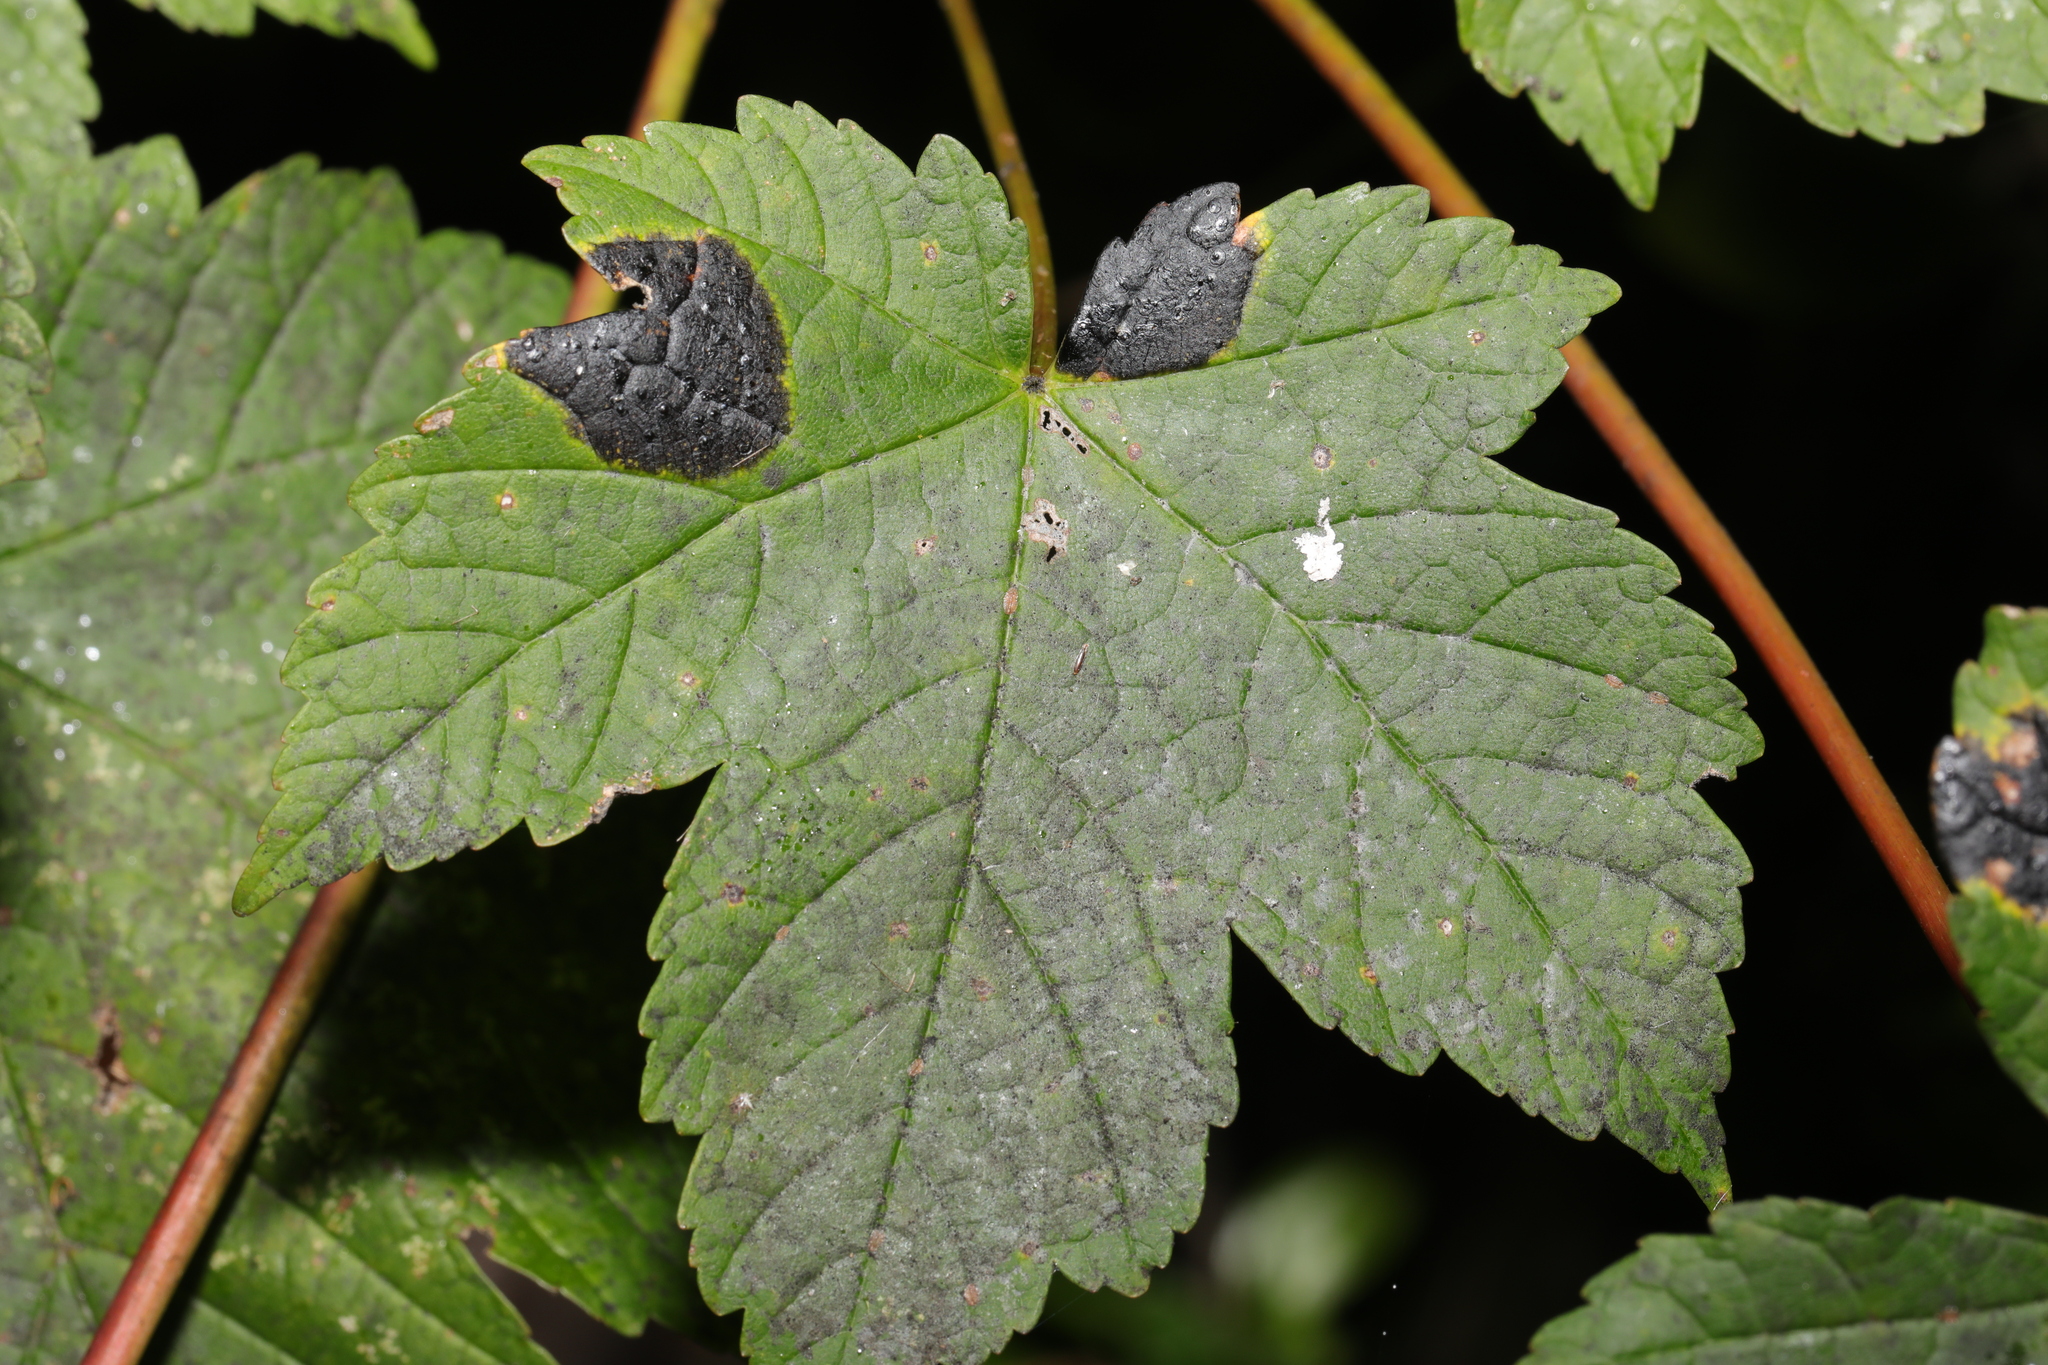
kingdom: Plantae
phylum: Tracheophyta
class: Magnoliopsida
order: Sapindales
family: Sapindaceae
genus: Acer
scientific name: Acer pseudoplatanus
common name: Sycamore
